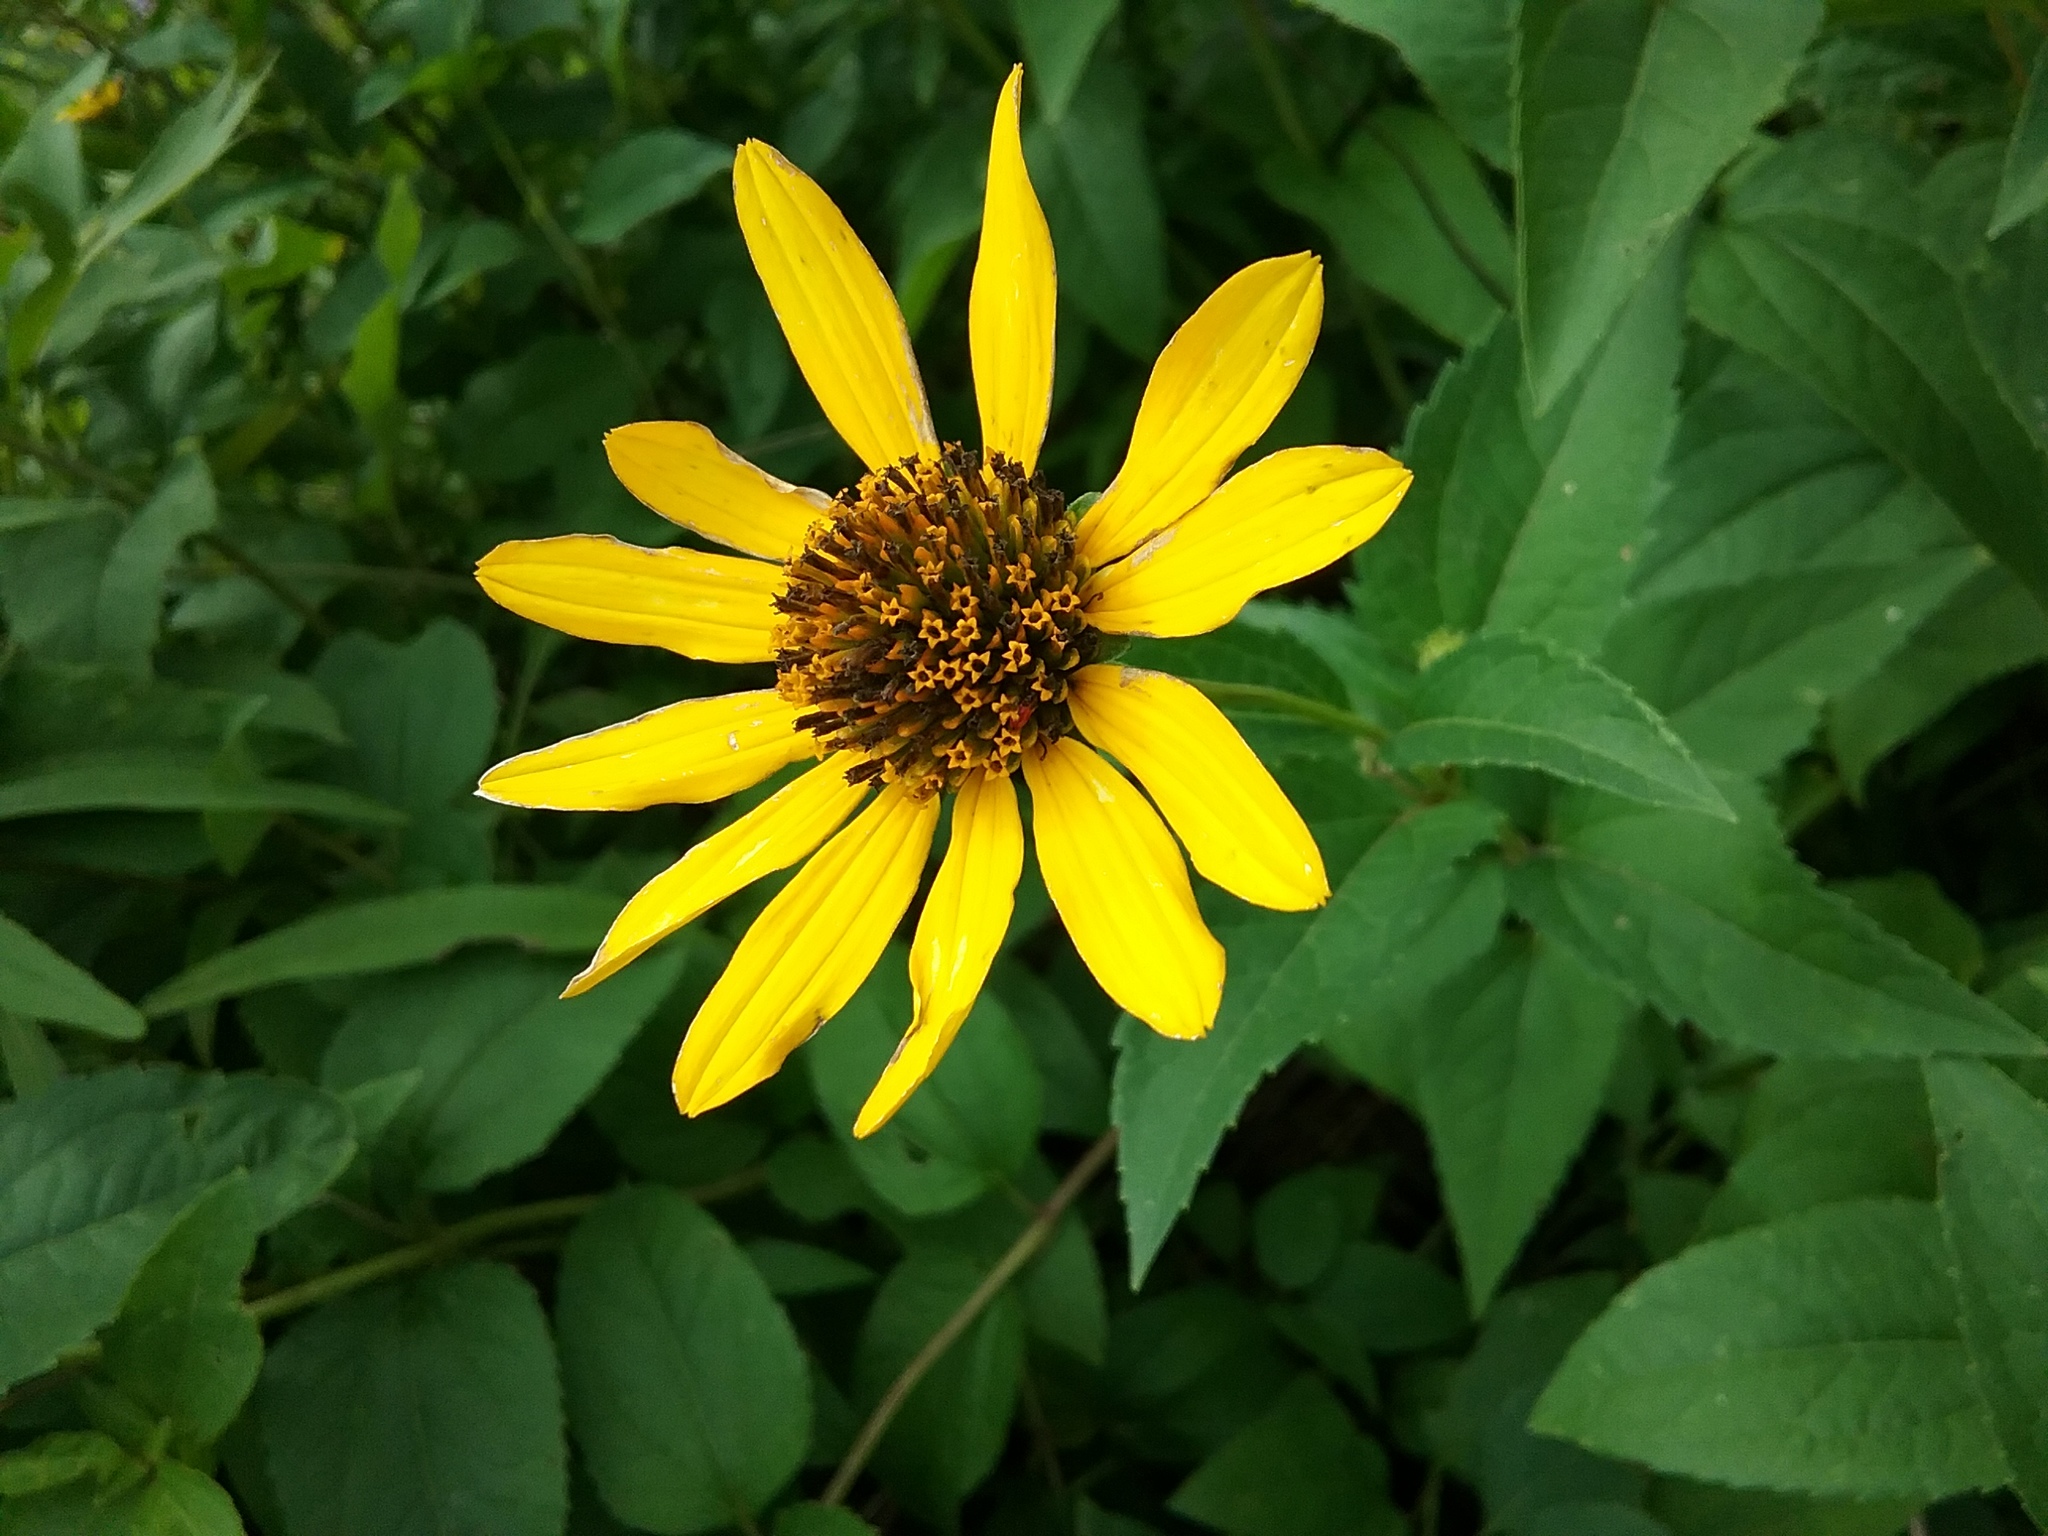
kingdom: Plantae
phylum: Tracheophyta
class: Magnoliopsida
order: Asterales
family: Asteraceae
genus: Heliopsis
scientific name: Heliopsis helianthoides
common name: False sunflower
